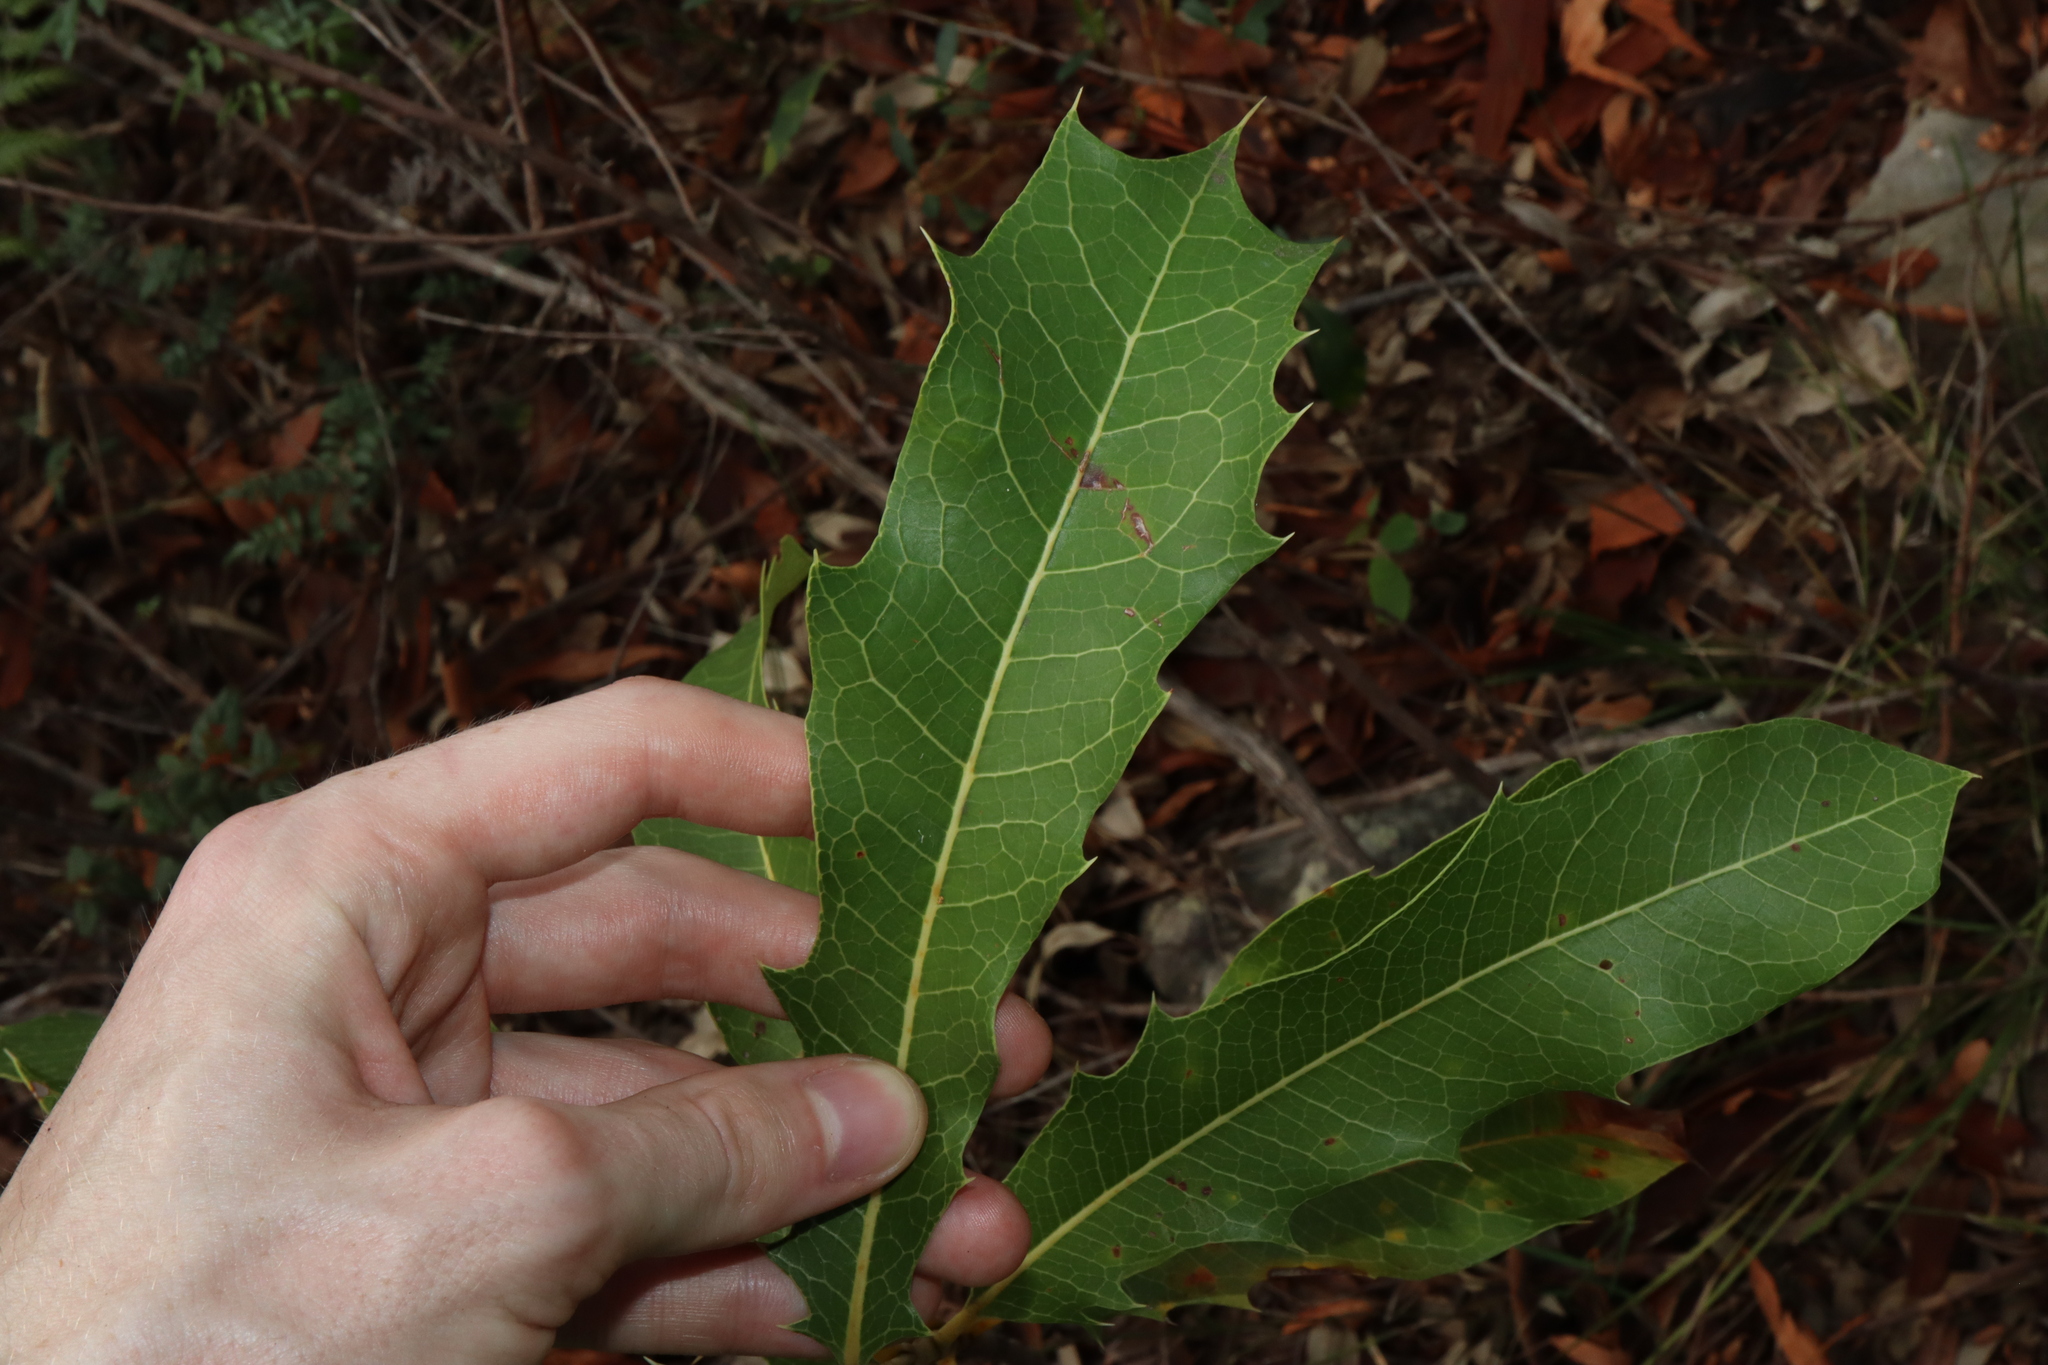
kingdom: Plantae
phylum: Tracheophyta
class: Magnoliopsida
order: Proteales
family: Proteaceae
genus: Xylomelum
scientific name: Xylomelum pyriforme
